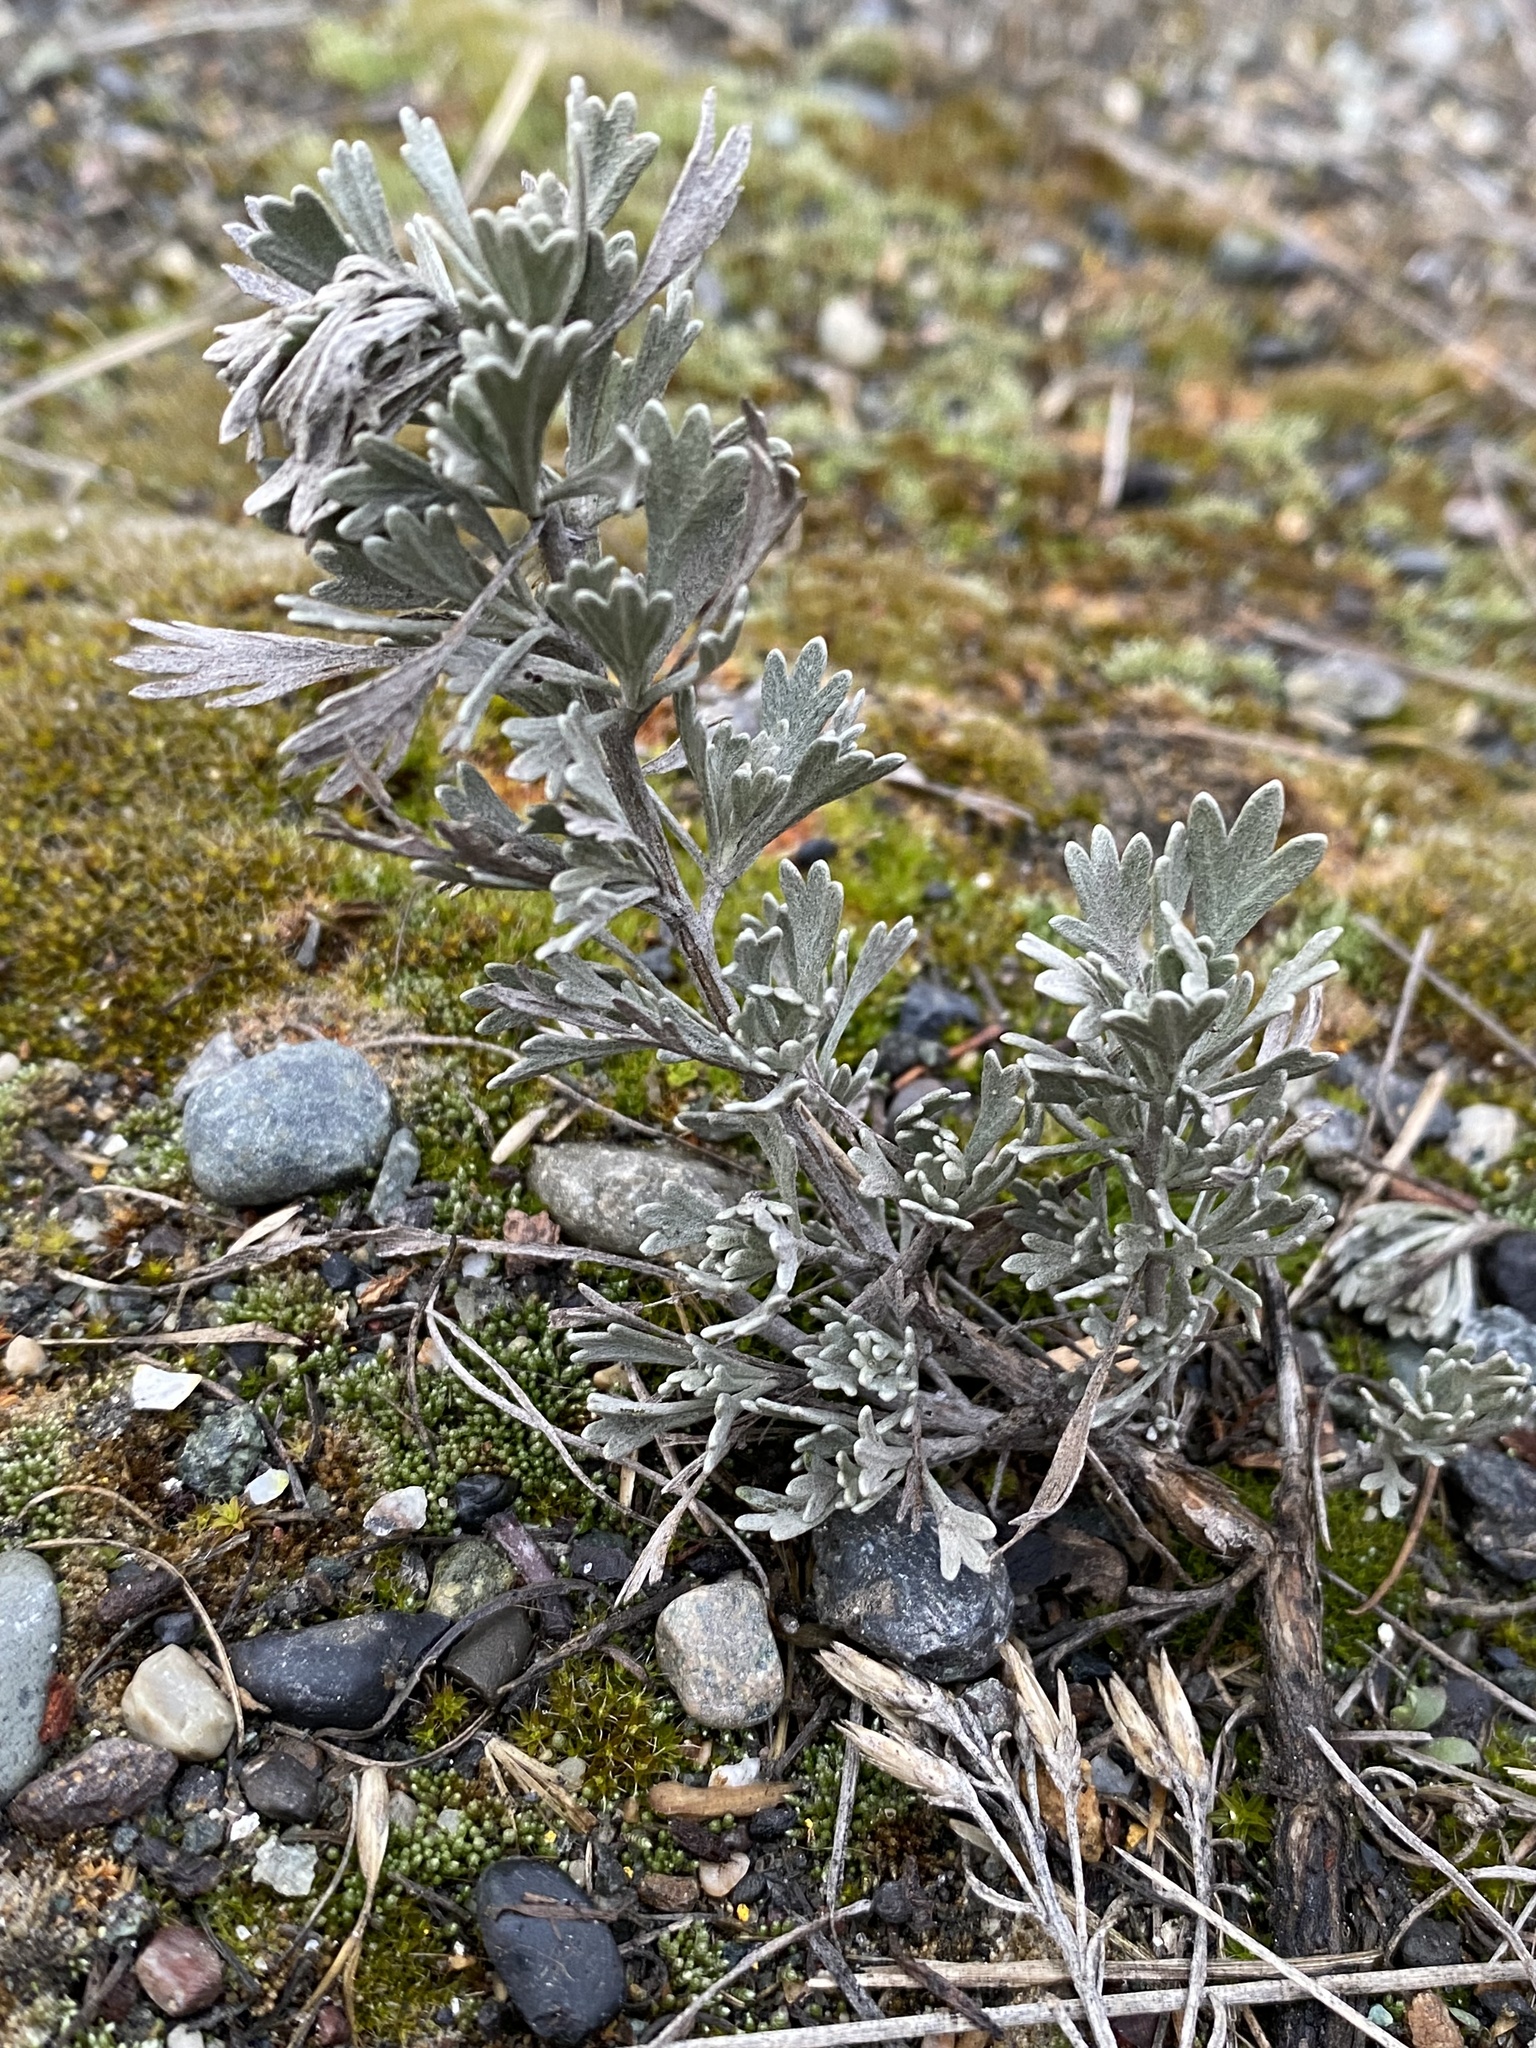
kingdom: Plantae
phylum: Tracheophyta
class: Magnoliopsida
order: Asterales
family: Asteraceae
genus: Artemisia
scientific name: Artemisia tridentata
